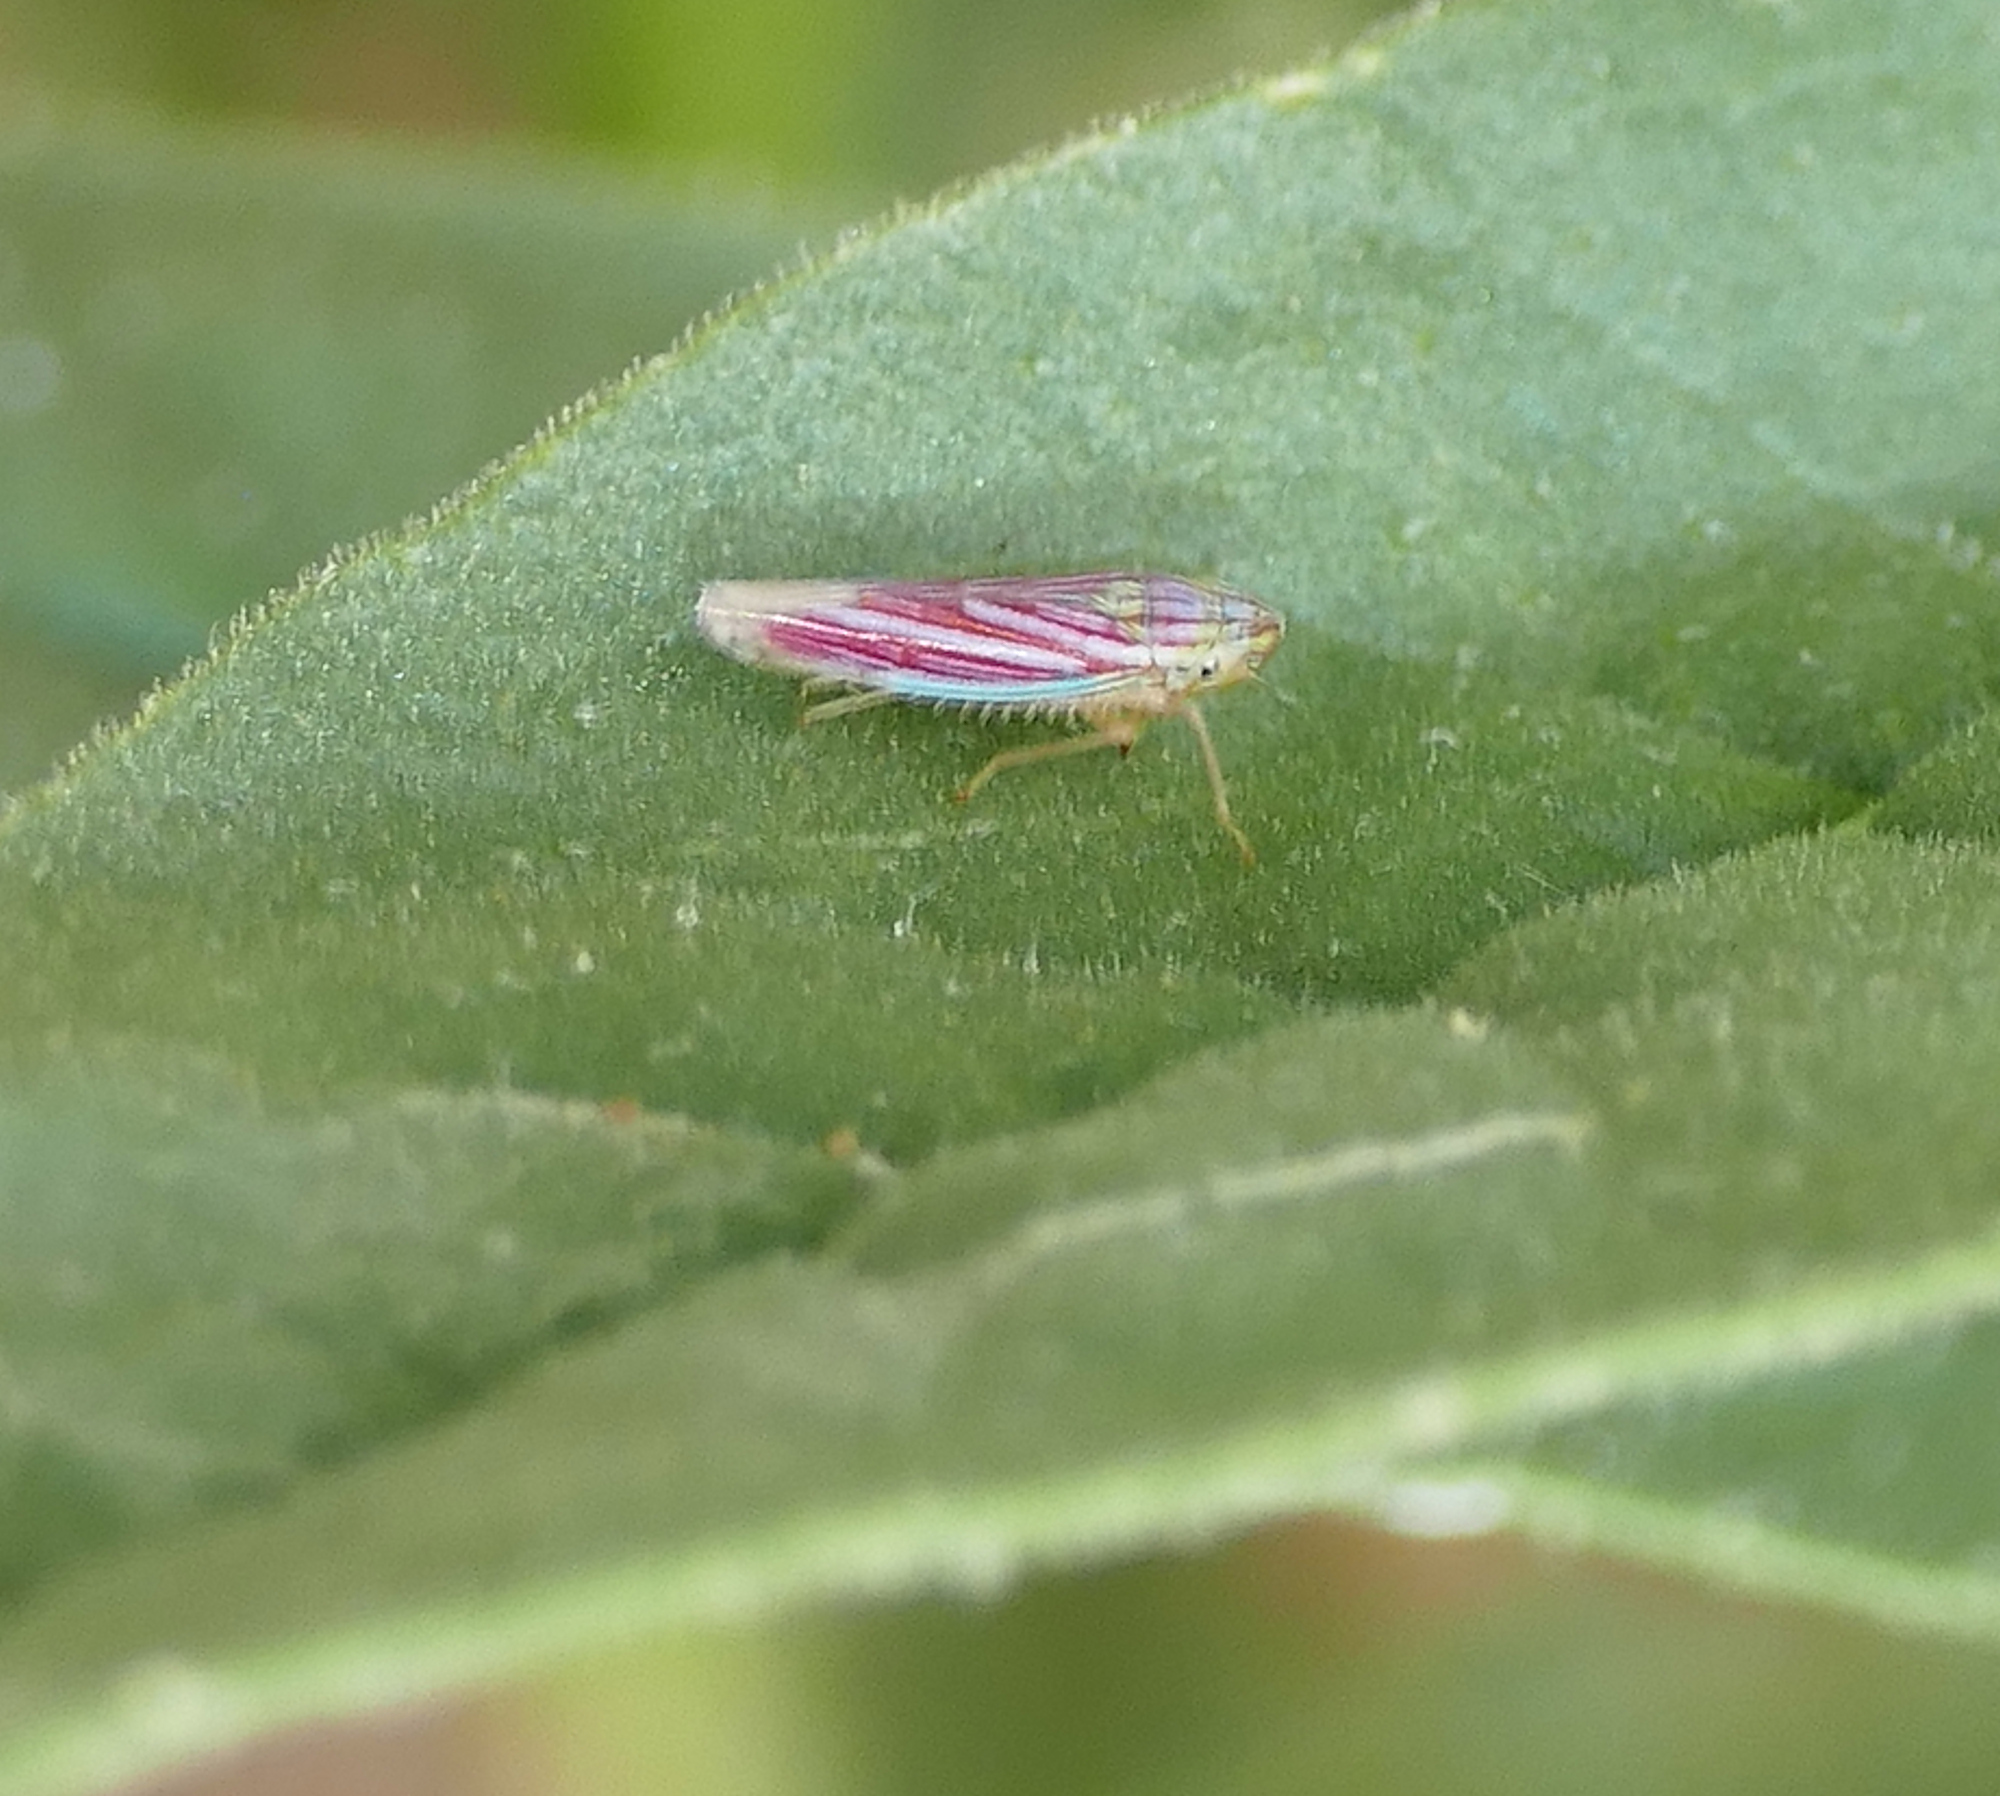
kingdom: Animalia
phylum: Arthropoda
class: Insecta
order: Hemiptera
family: Cicadellidae
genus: Sibovia
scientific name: Sibovia compta
